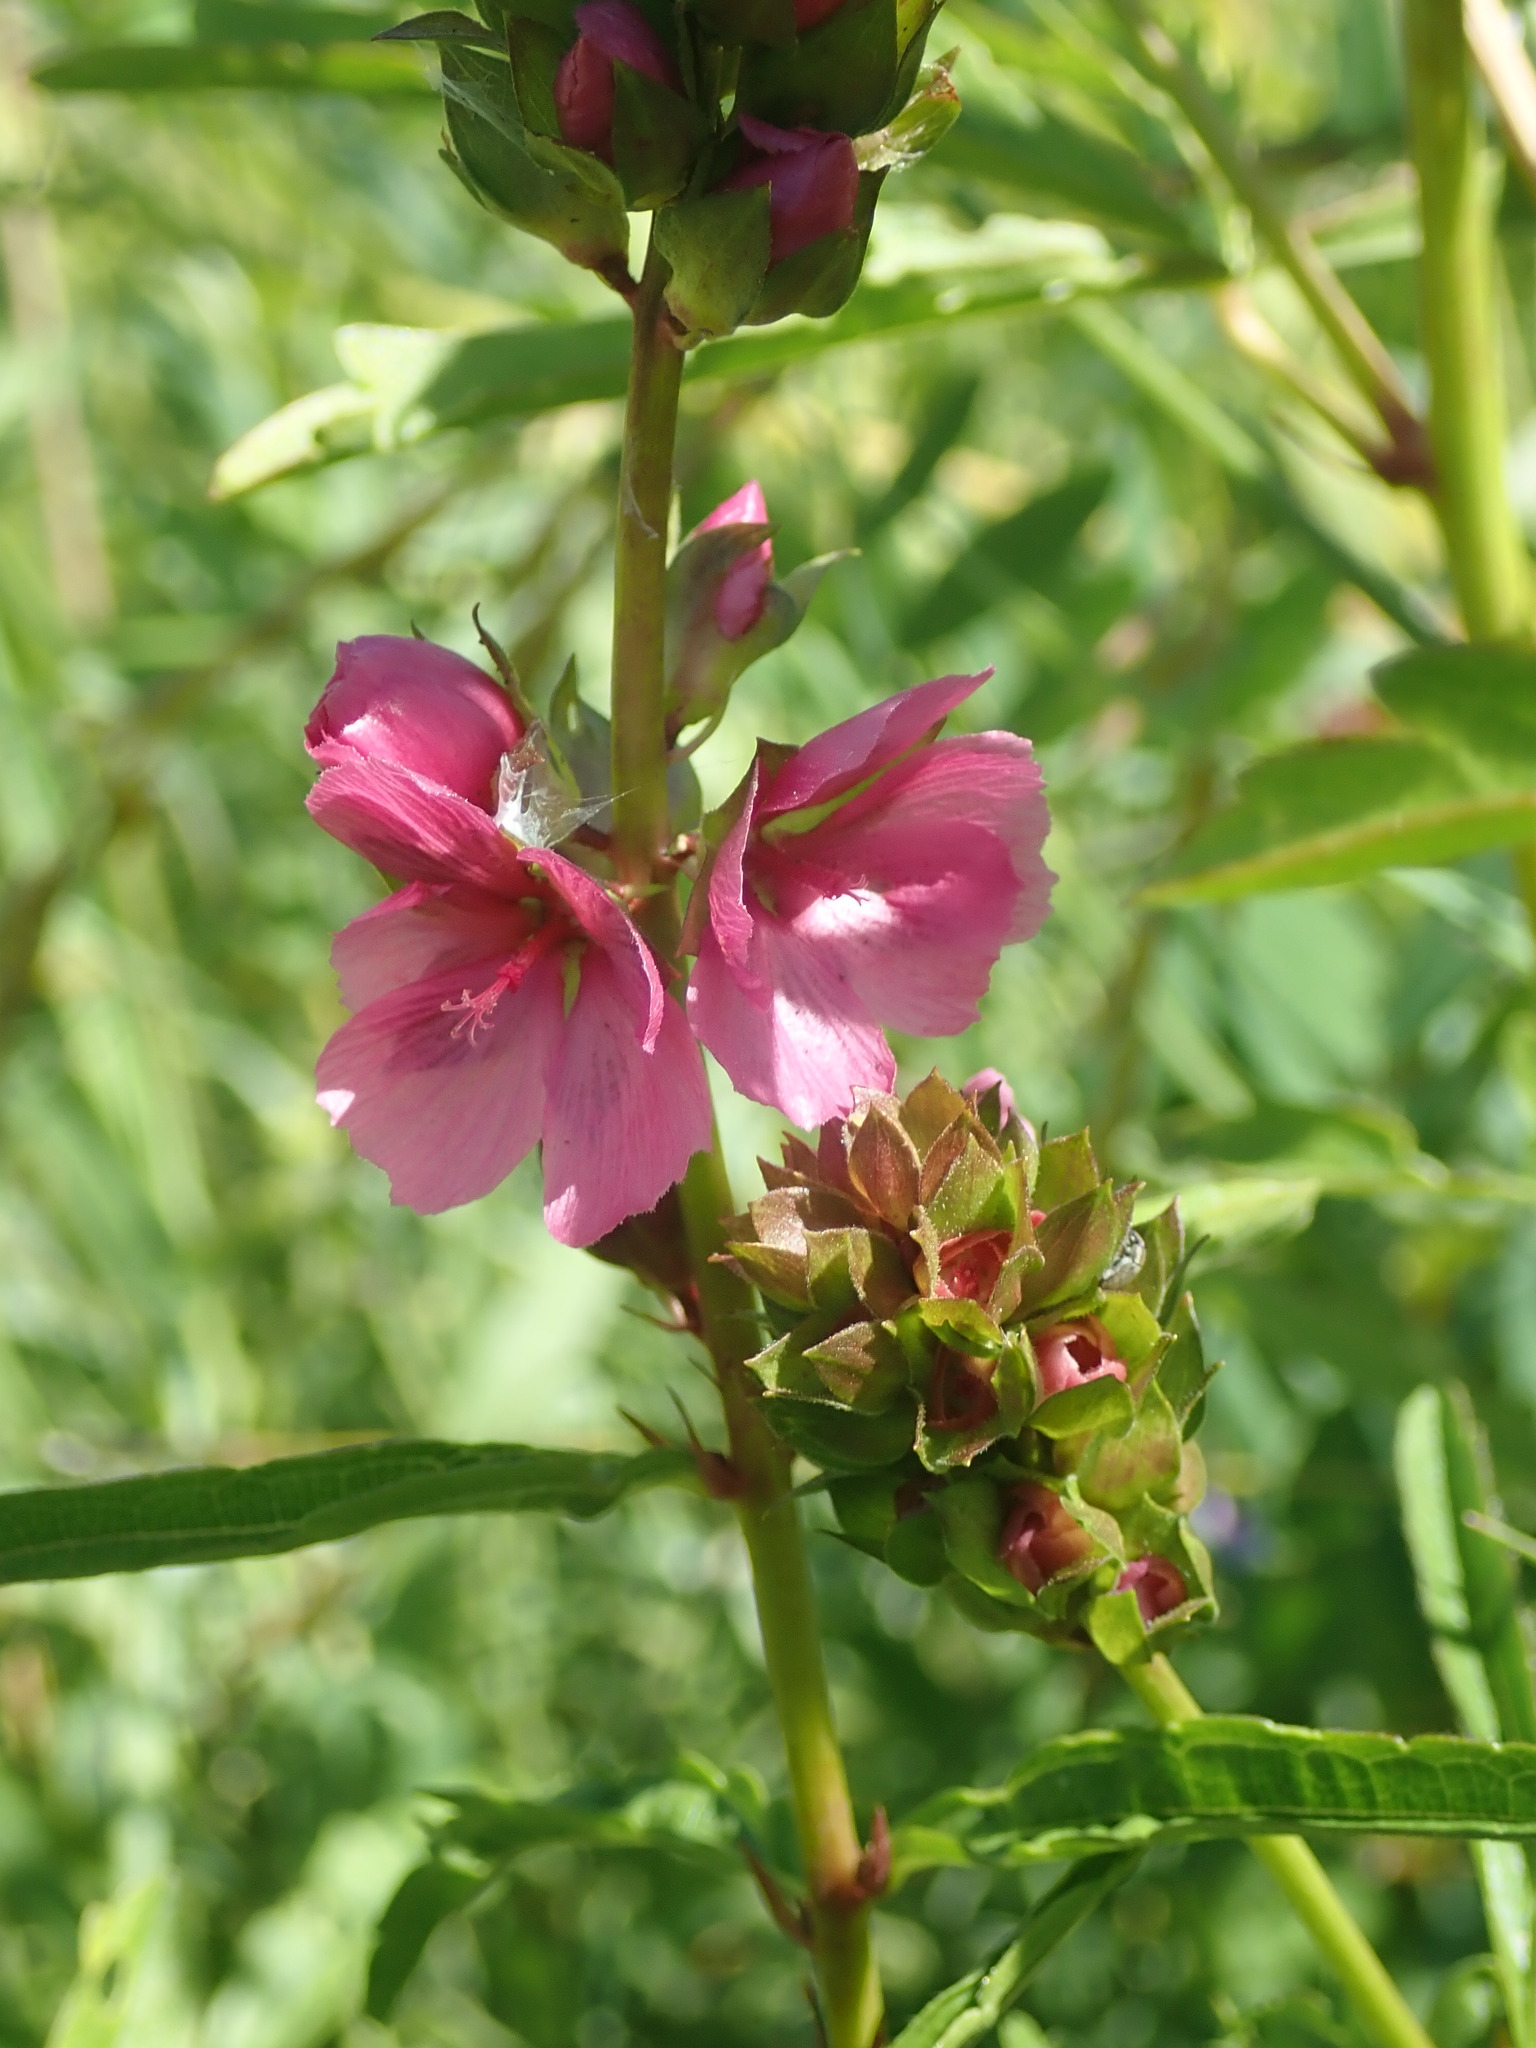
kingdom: Plantae
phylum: Tracheophyta
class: Magnoliopsida
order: Malvales
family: Malvaceae
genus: Sidalcea
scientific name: Sidalcea hendersonii
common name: Mallow
